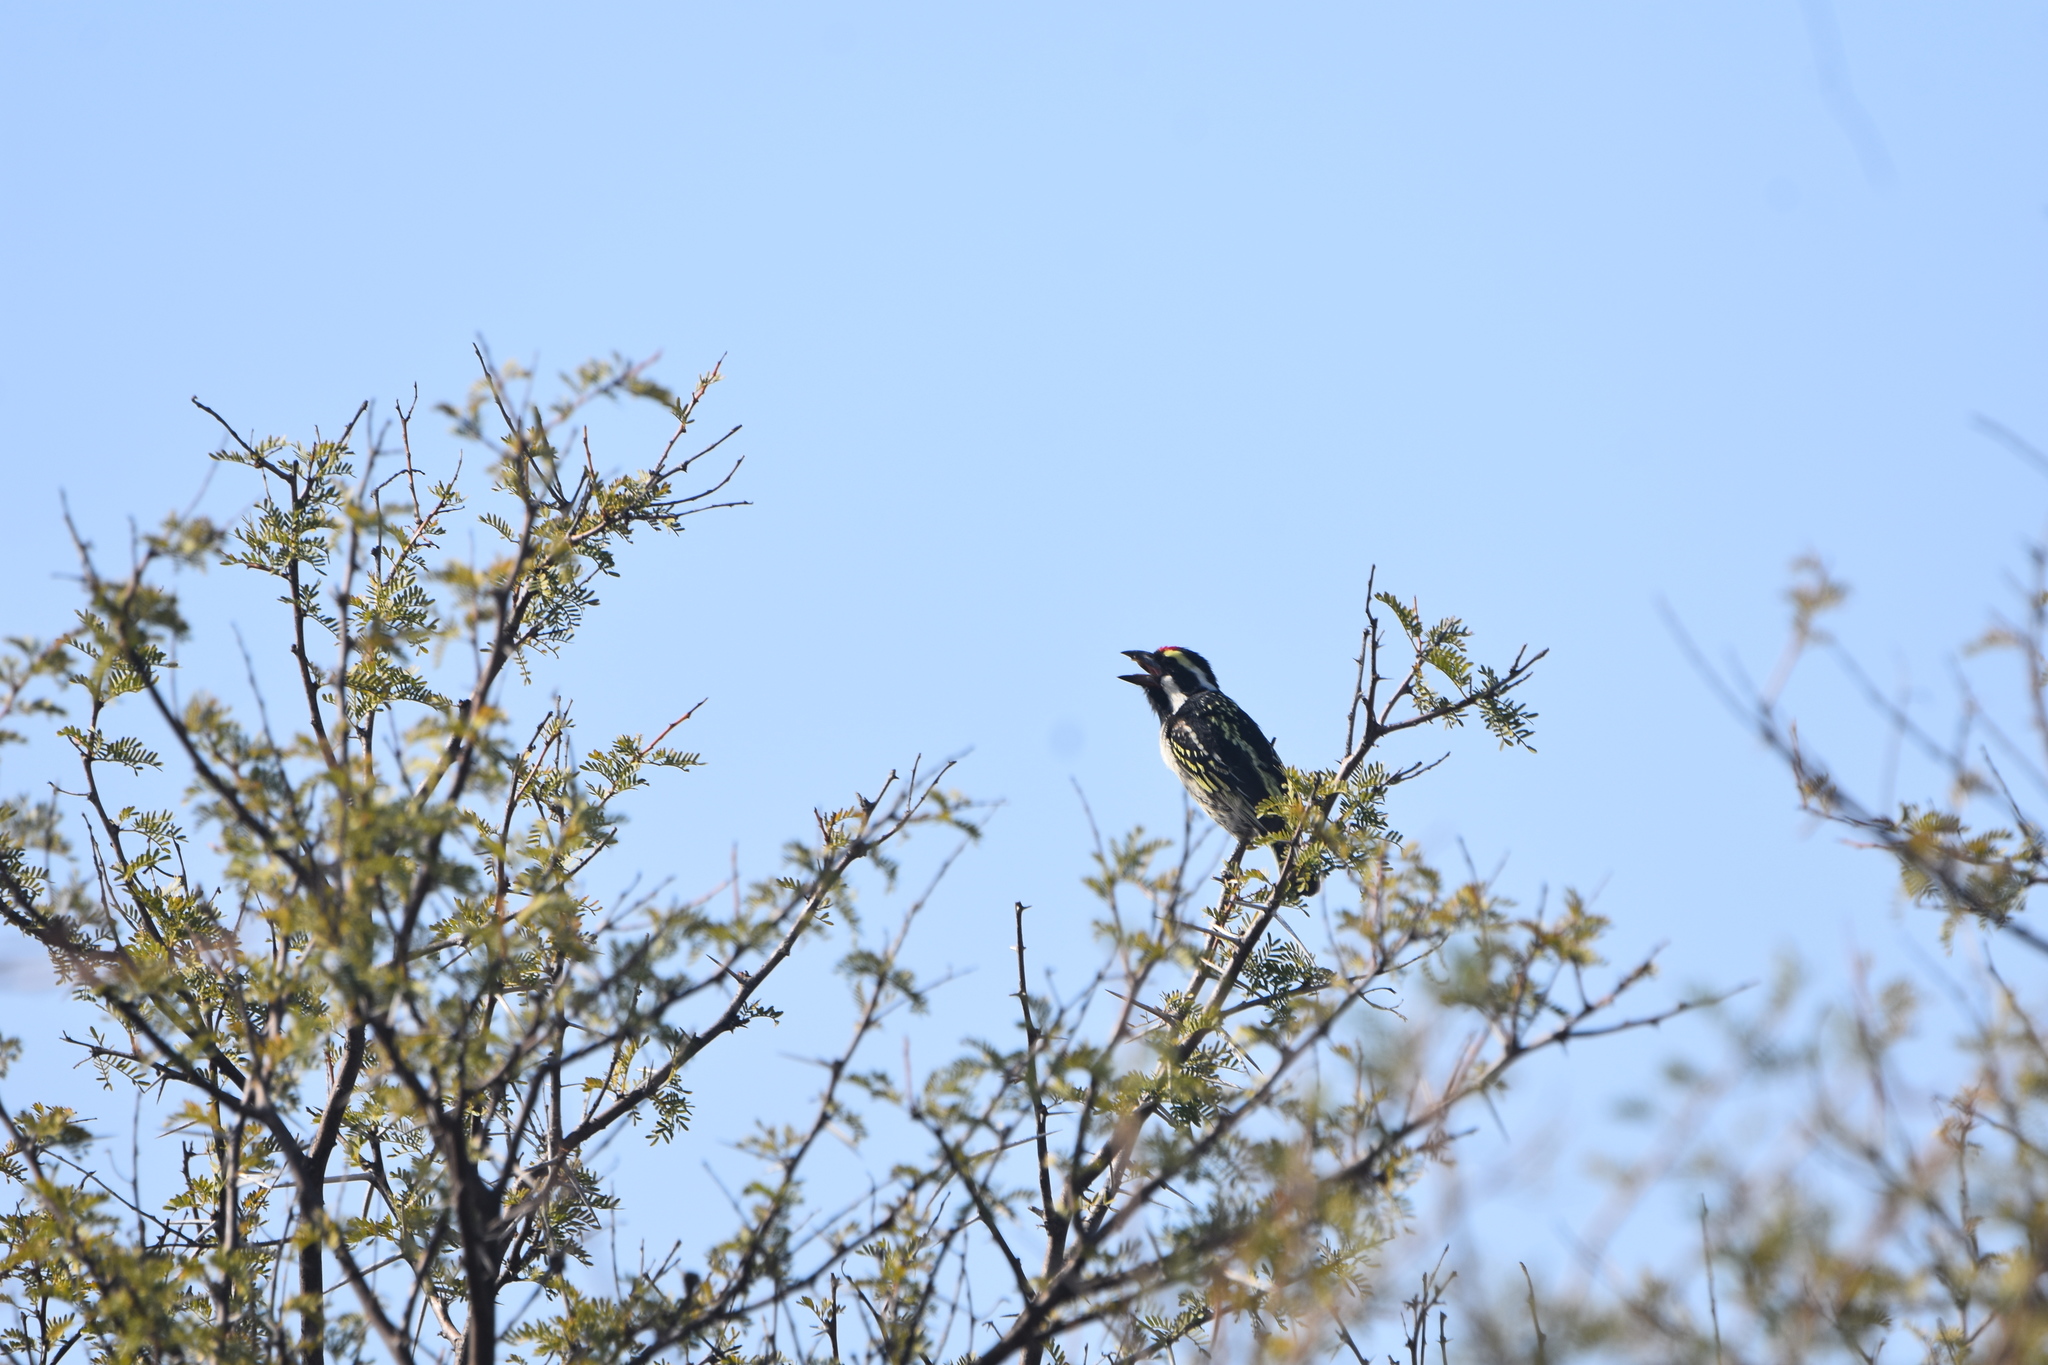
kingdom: Animalia
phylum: Chordata
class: Aves
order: Piciformes
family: Lybiidae
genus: Tricholaema
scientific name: Tricholaema leucomelas
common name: Acacia pied barbet
